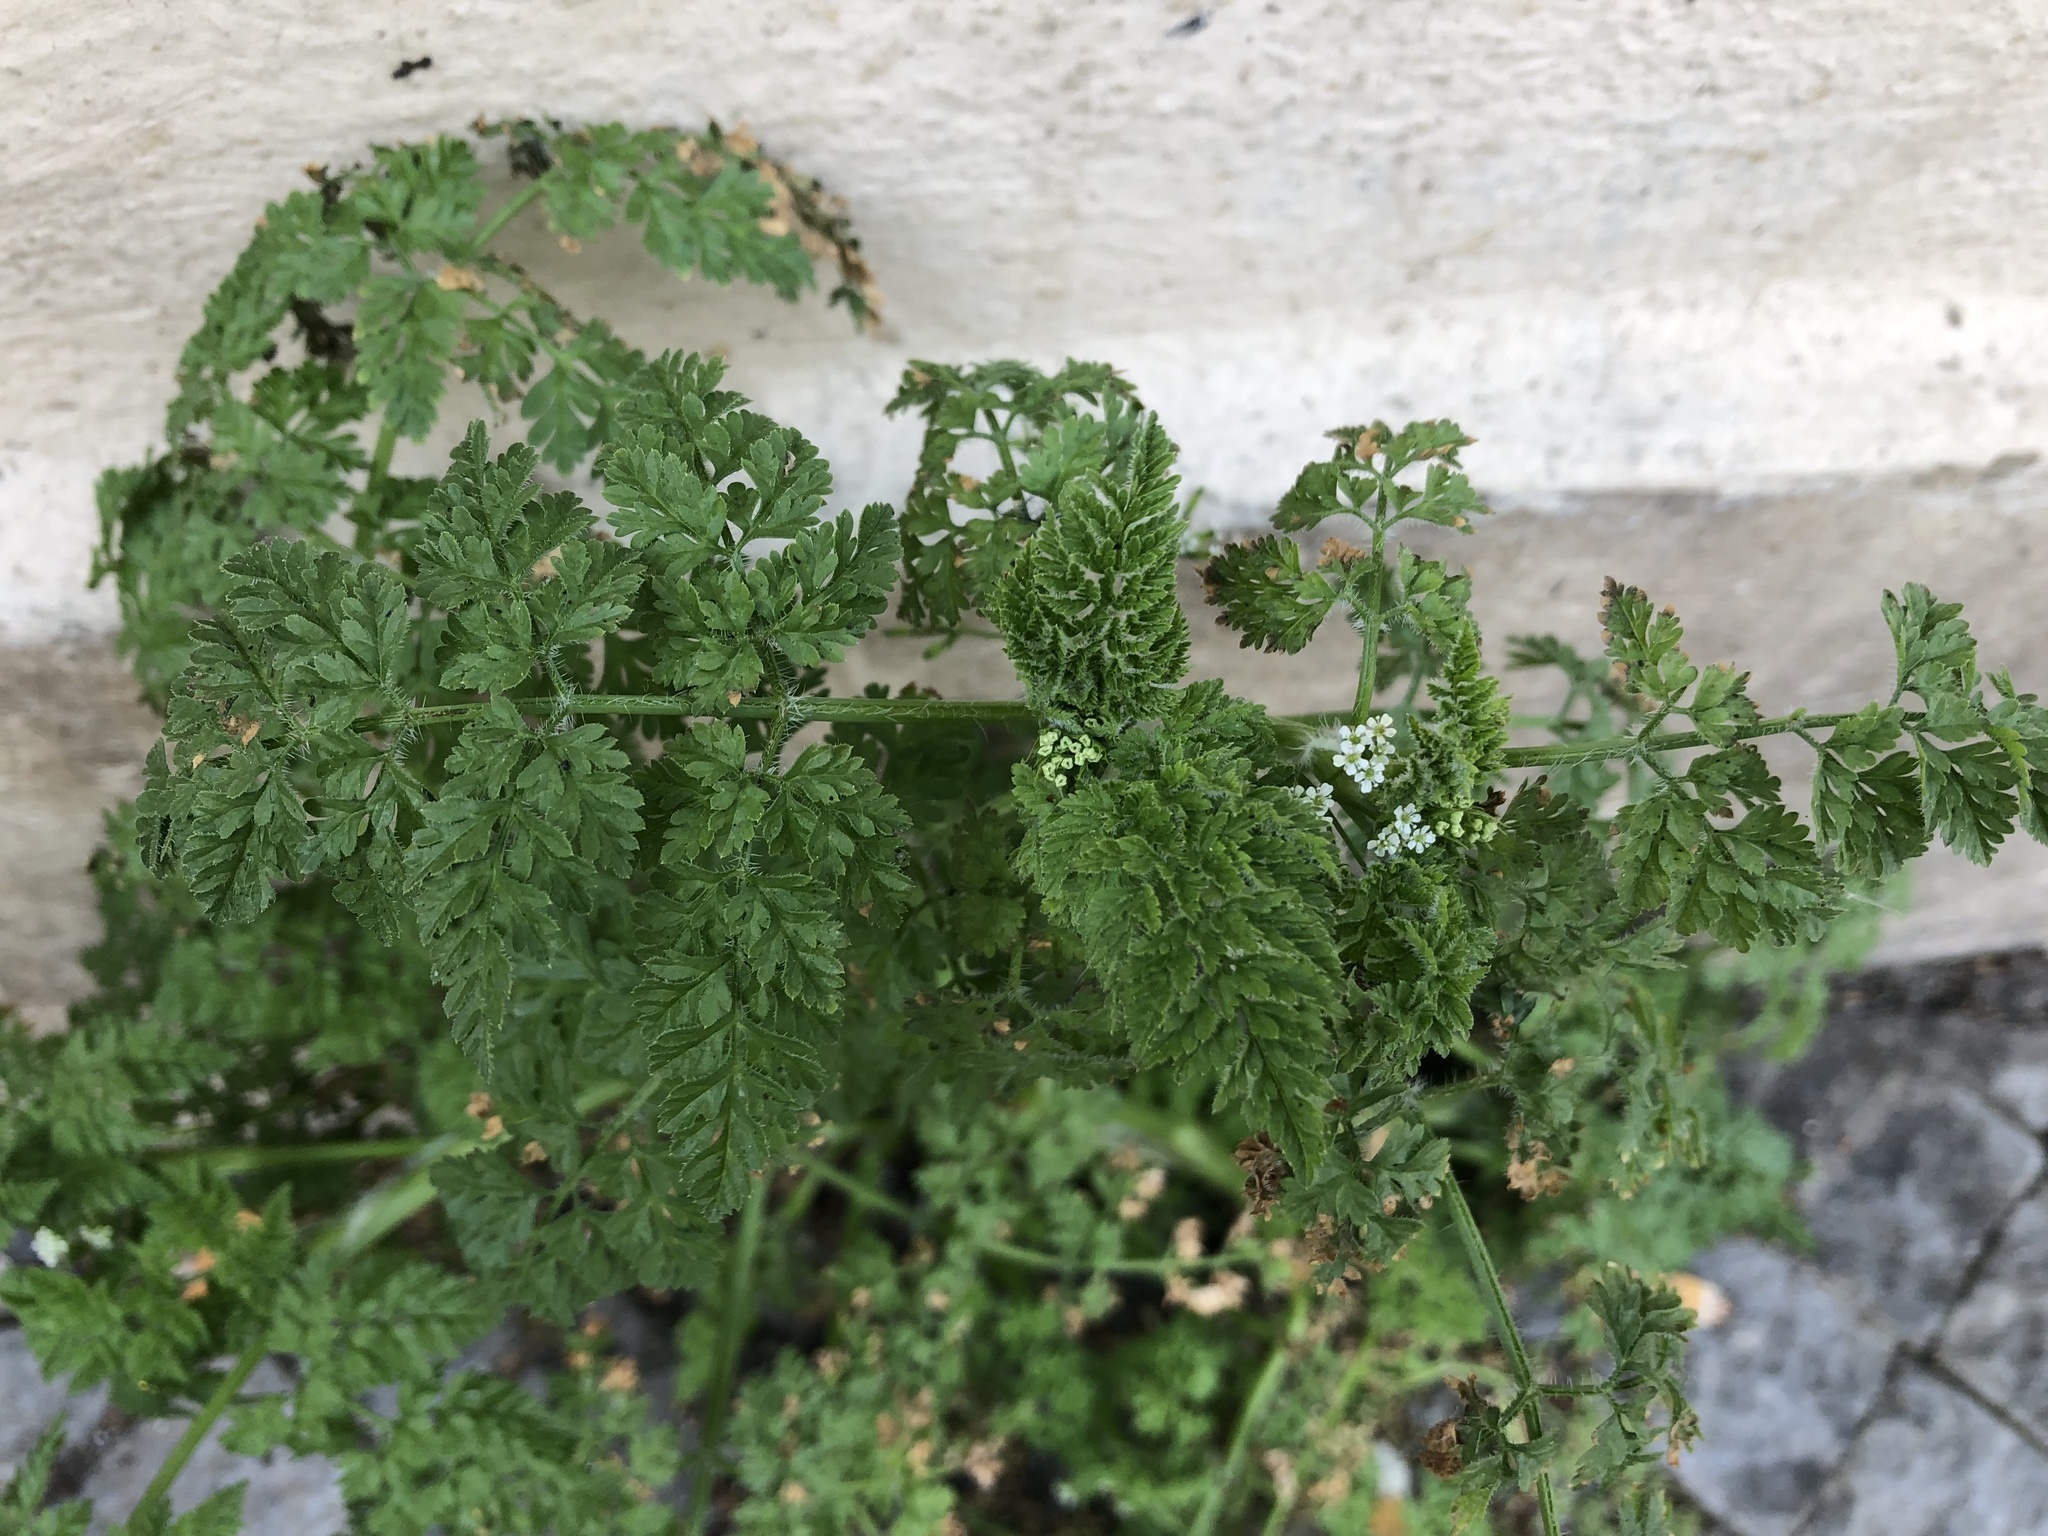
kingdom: Plantae
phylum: Tracheophyta
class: Magnoliopsida
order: Apiales
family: Apiaceae
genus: Anthriscus
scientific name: Anthriscus caucalis
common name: Bur chervil
